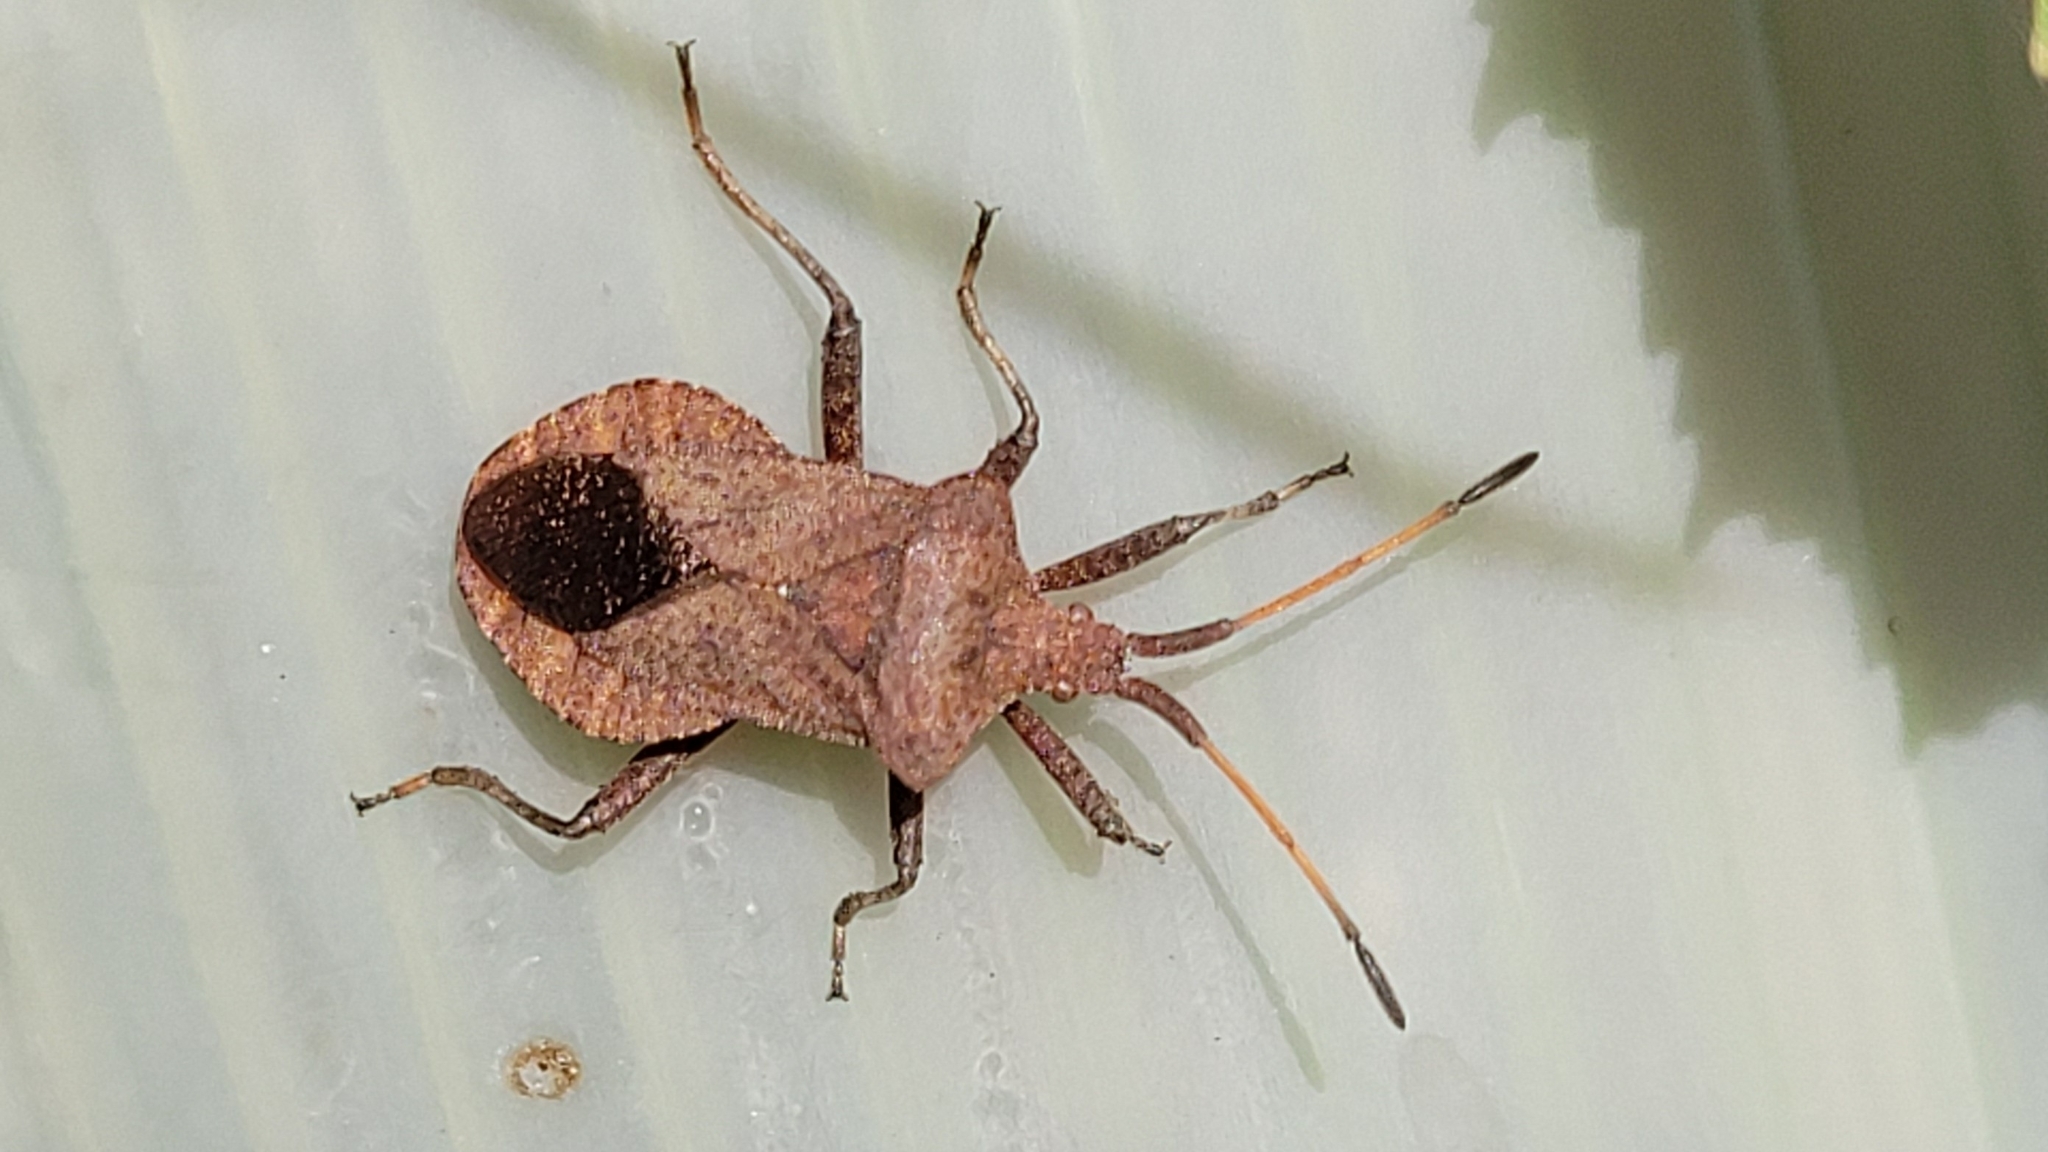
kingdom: Animalia
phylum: Arthropoda
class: Insecta
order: Hemiptera
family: Coreidae
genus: Coreus
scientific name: Coreus marginatus
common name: Dock bug
